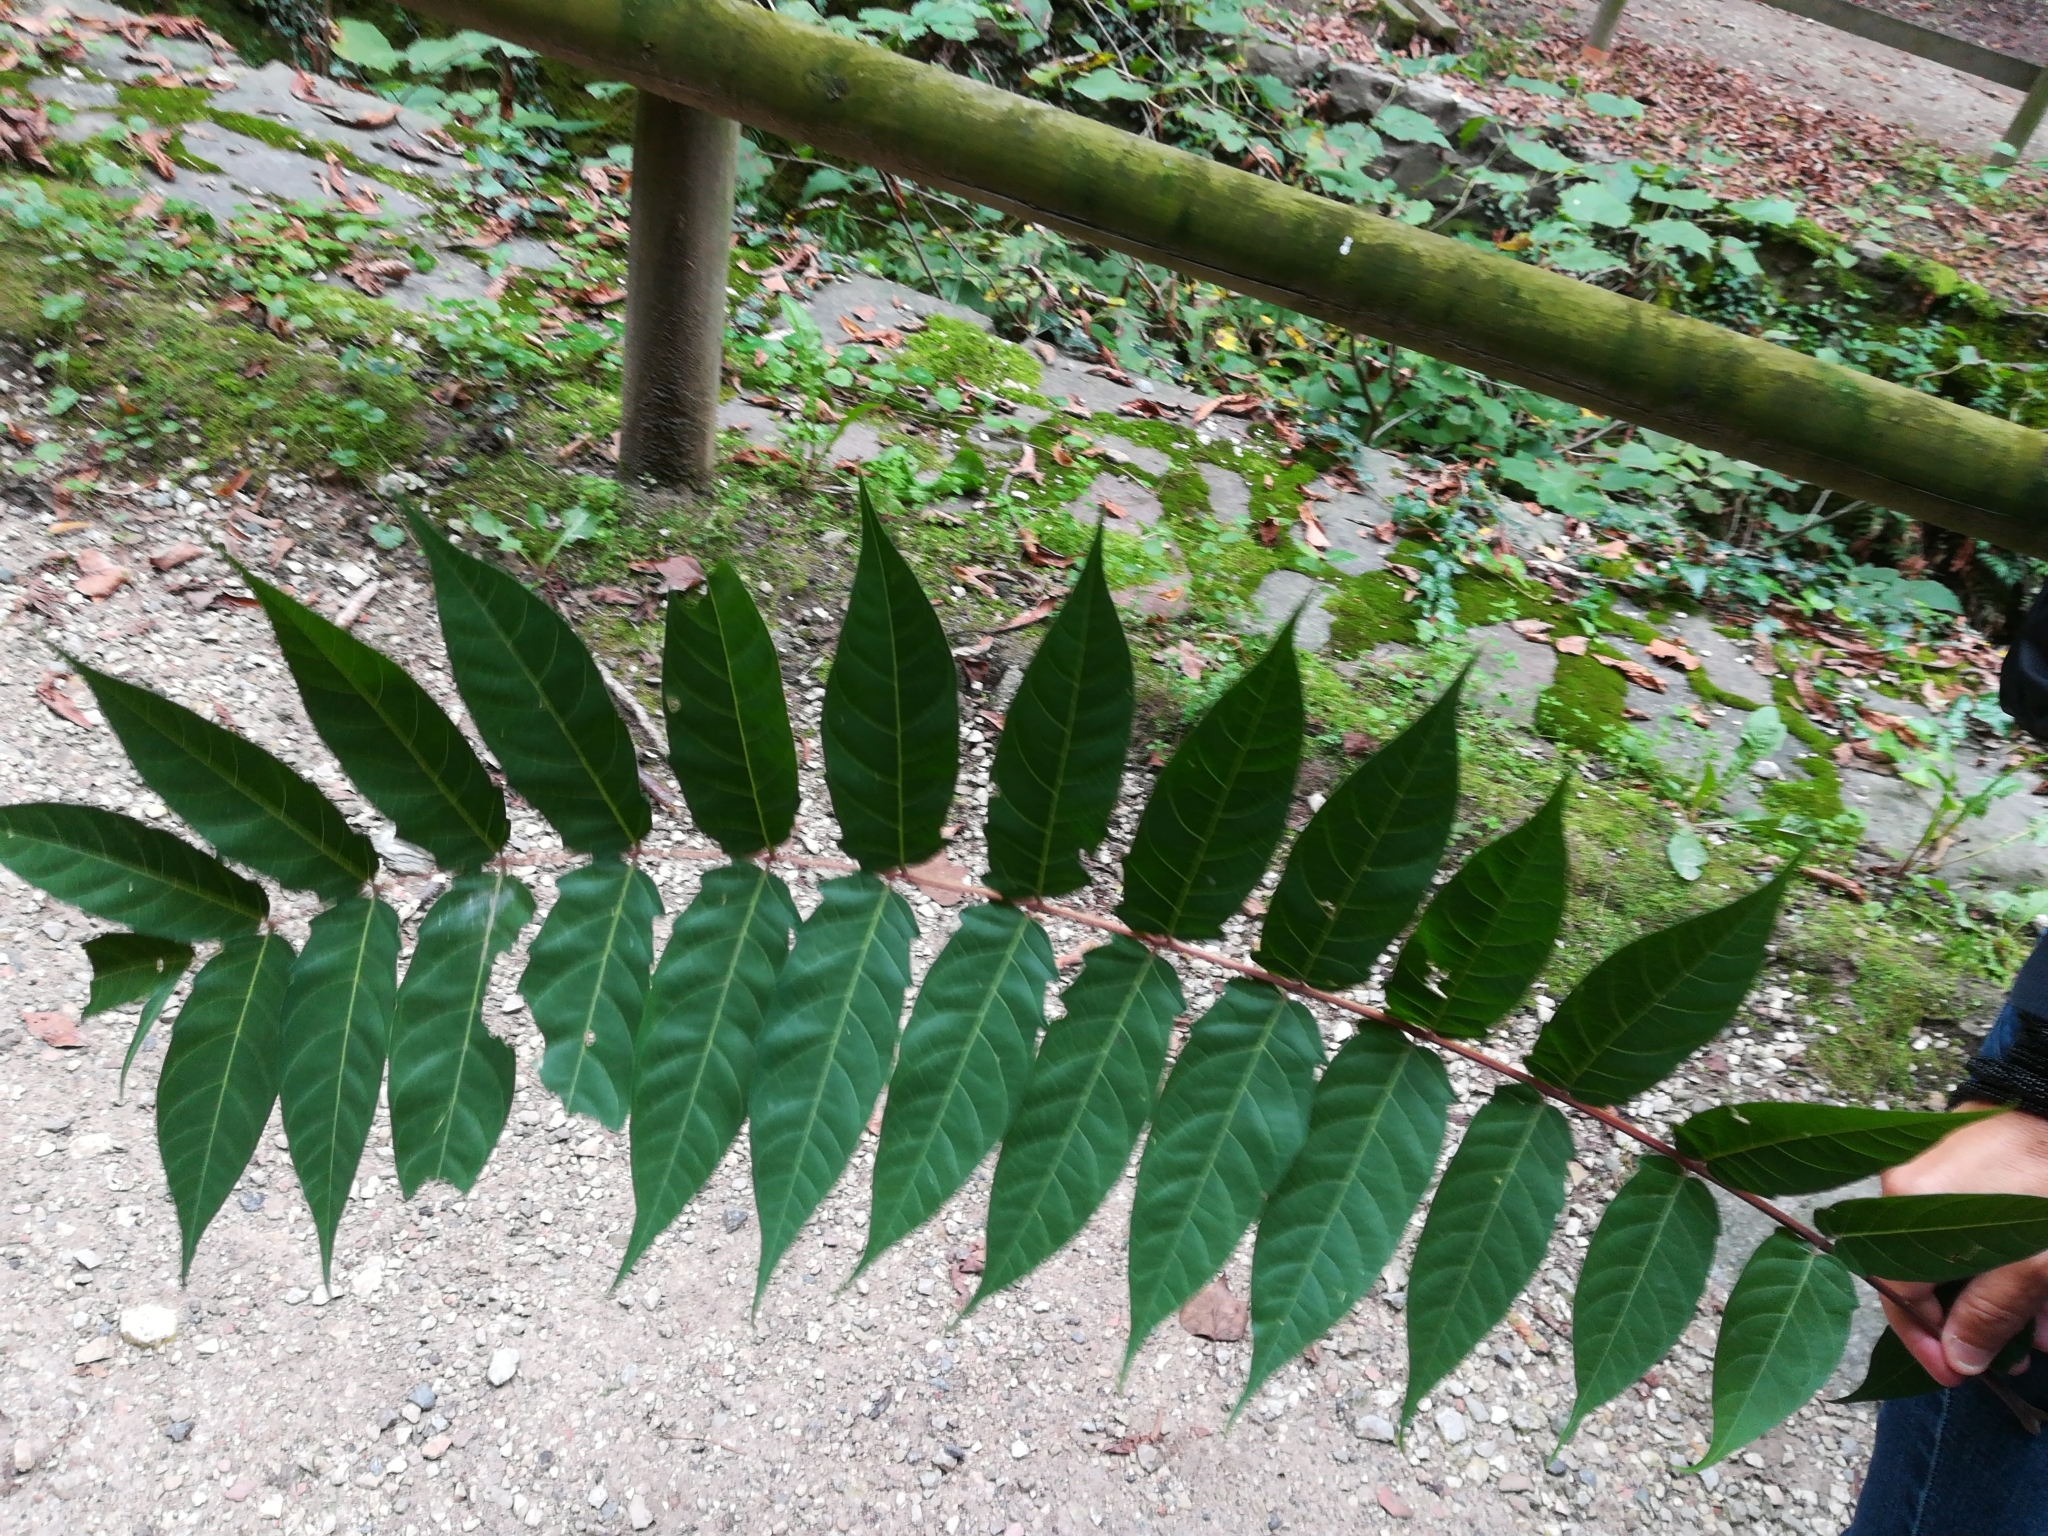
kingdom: Plantae
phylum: Tracheophyta
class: Magnoliopsida
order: Sapindales
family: Simaroubaceae
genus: Ailanthus
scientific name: Ailanthus altissima
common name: Tree-of-heaven
